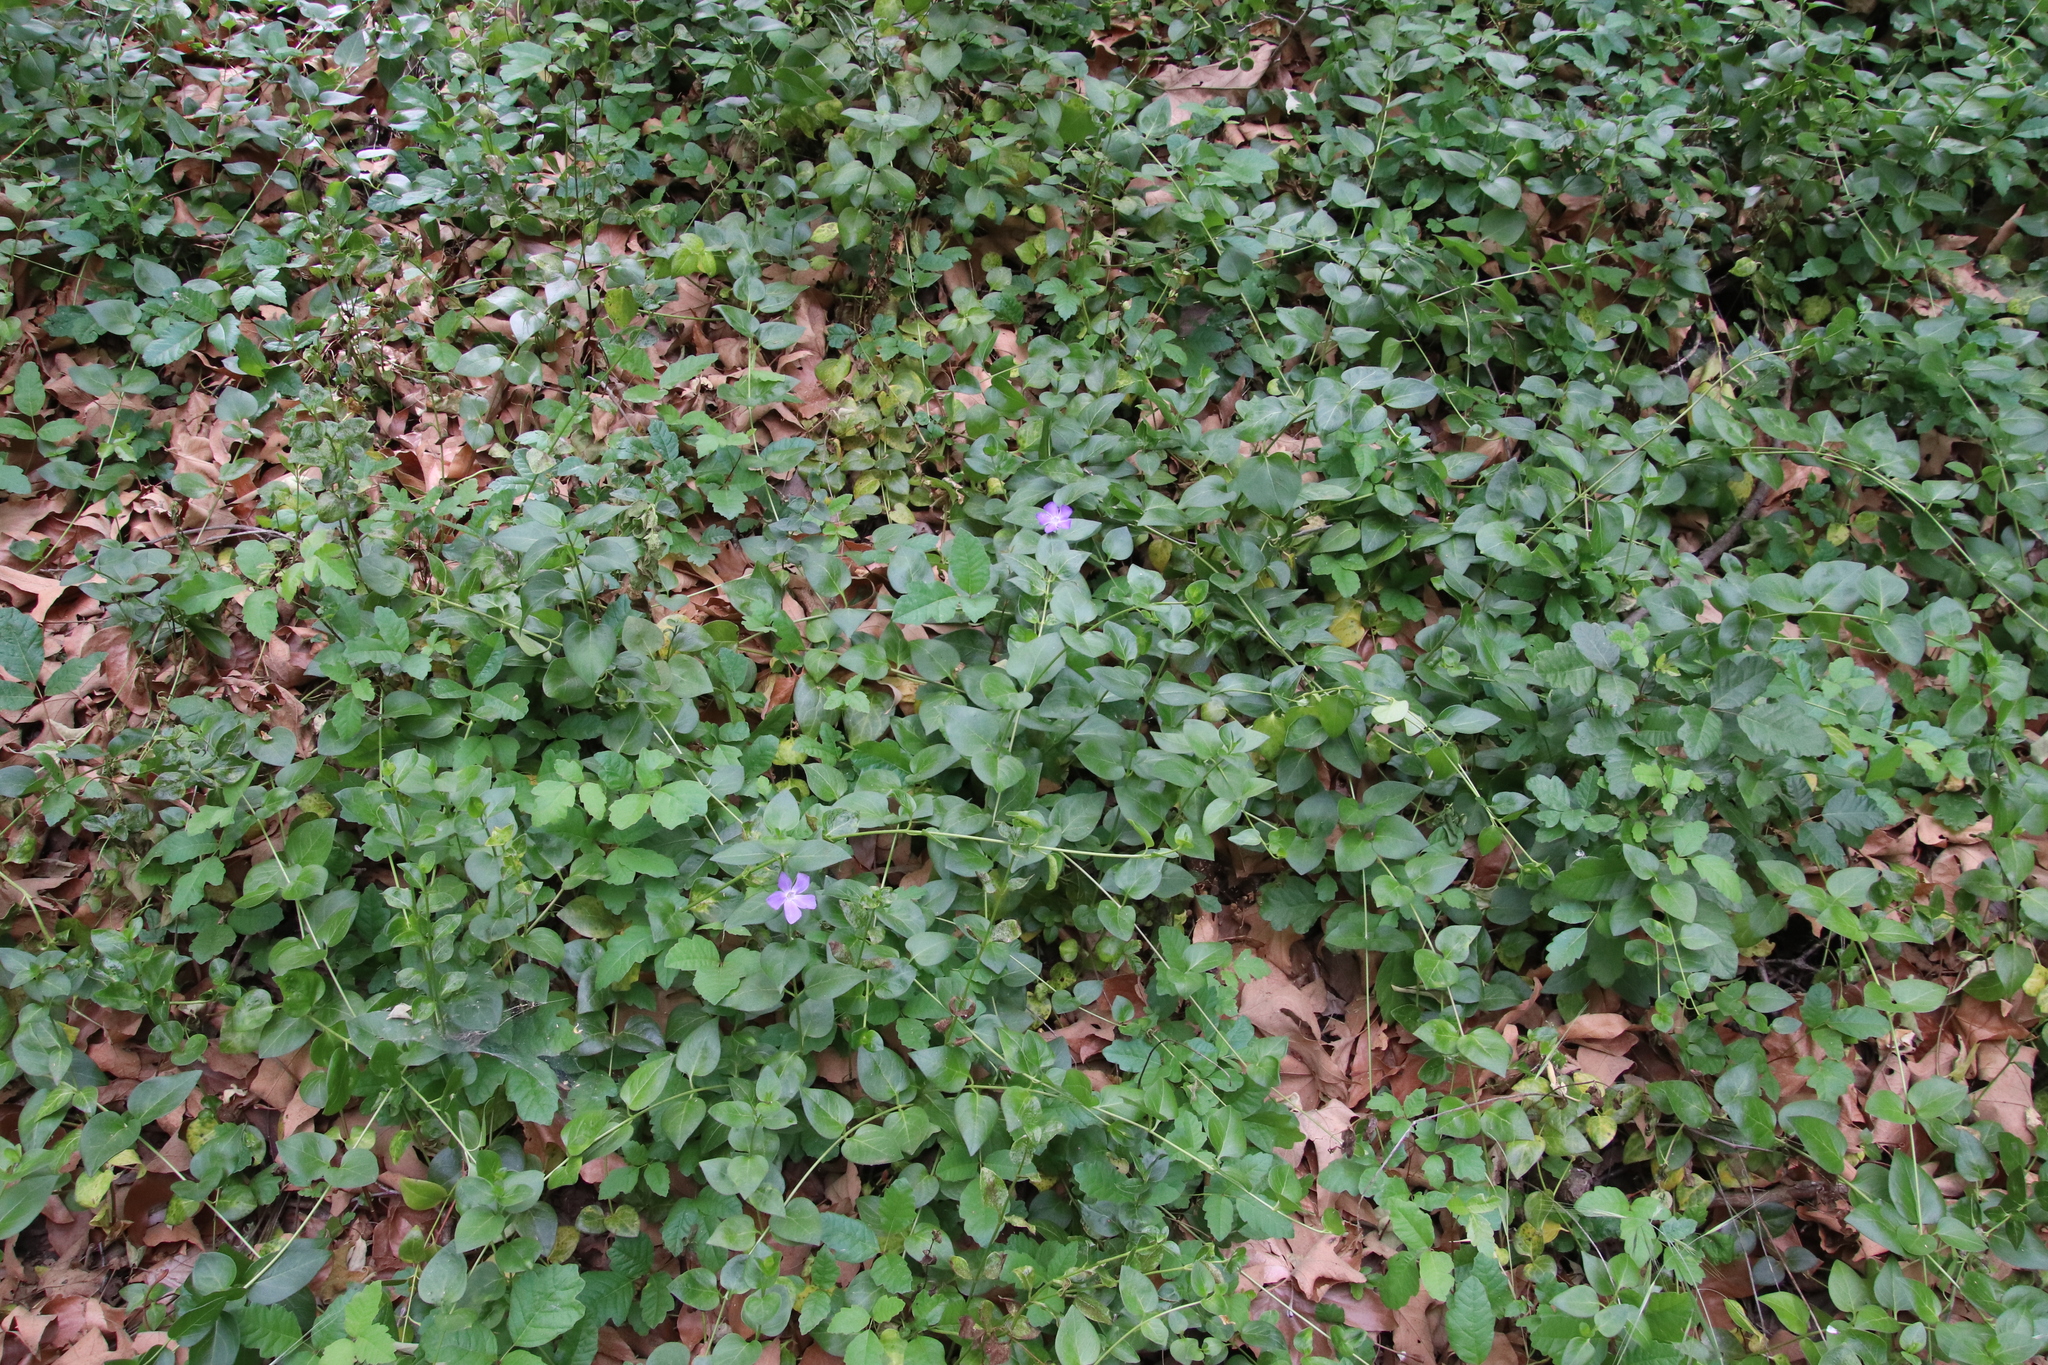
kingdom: Plantae
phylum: Tracheophyta
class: Magnoliopsida
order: Gentianales
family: Apocynaceae
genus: Vinca
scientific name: Vinca major
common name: Greater periwinkle
